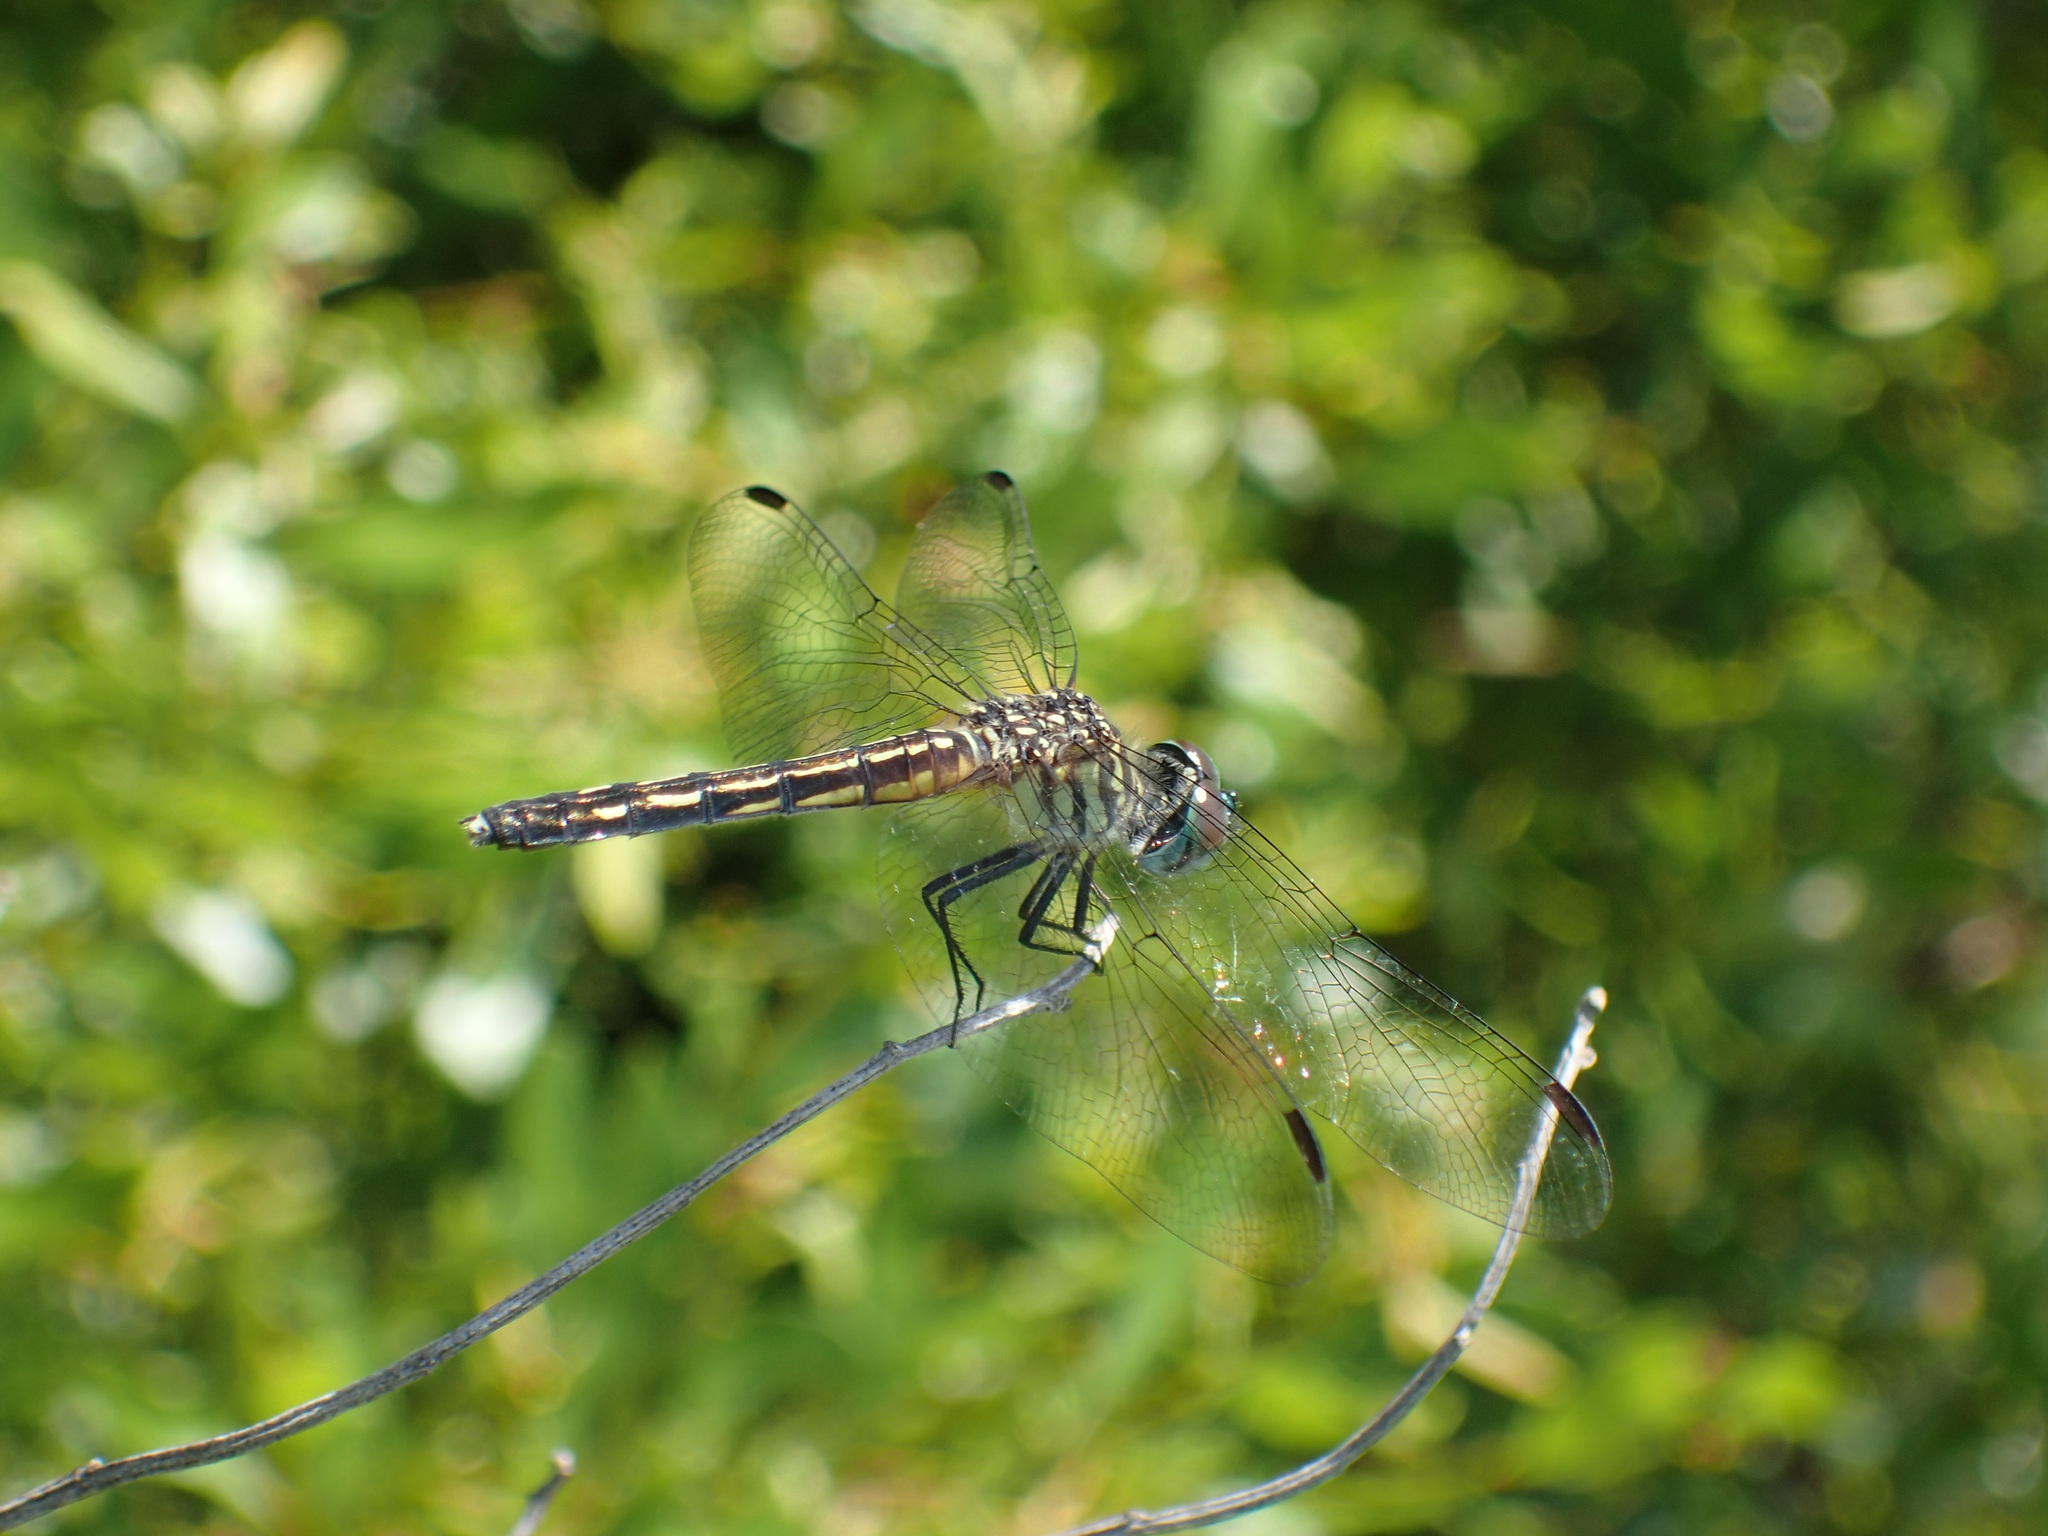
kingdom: Animalia
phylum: Arthropoda
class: Insecta
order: Odonata
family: Libellulidae
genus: Pachydiplax
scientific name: Pachydiplax longipennis
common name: Blue dasher
